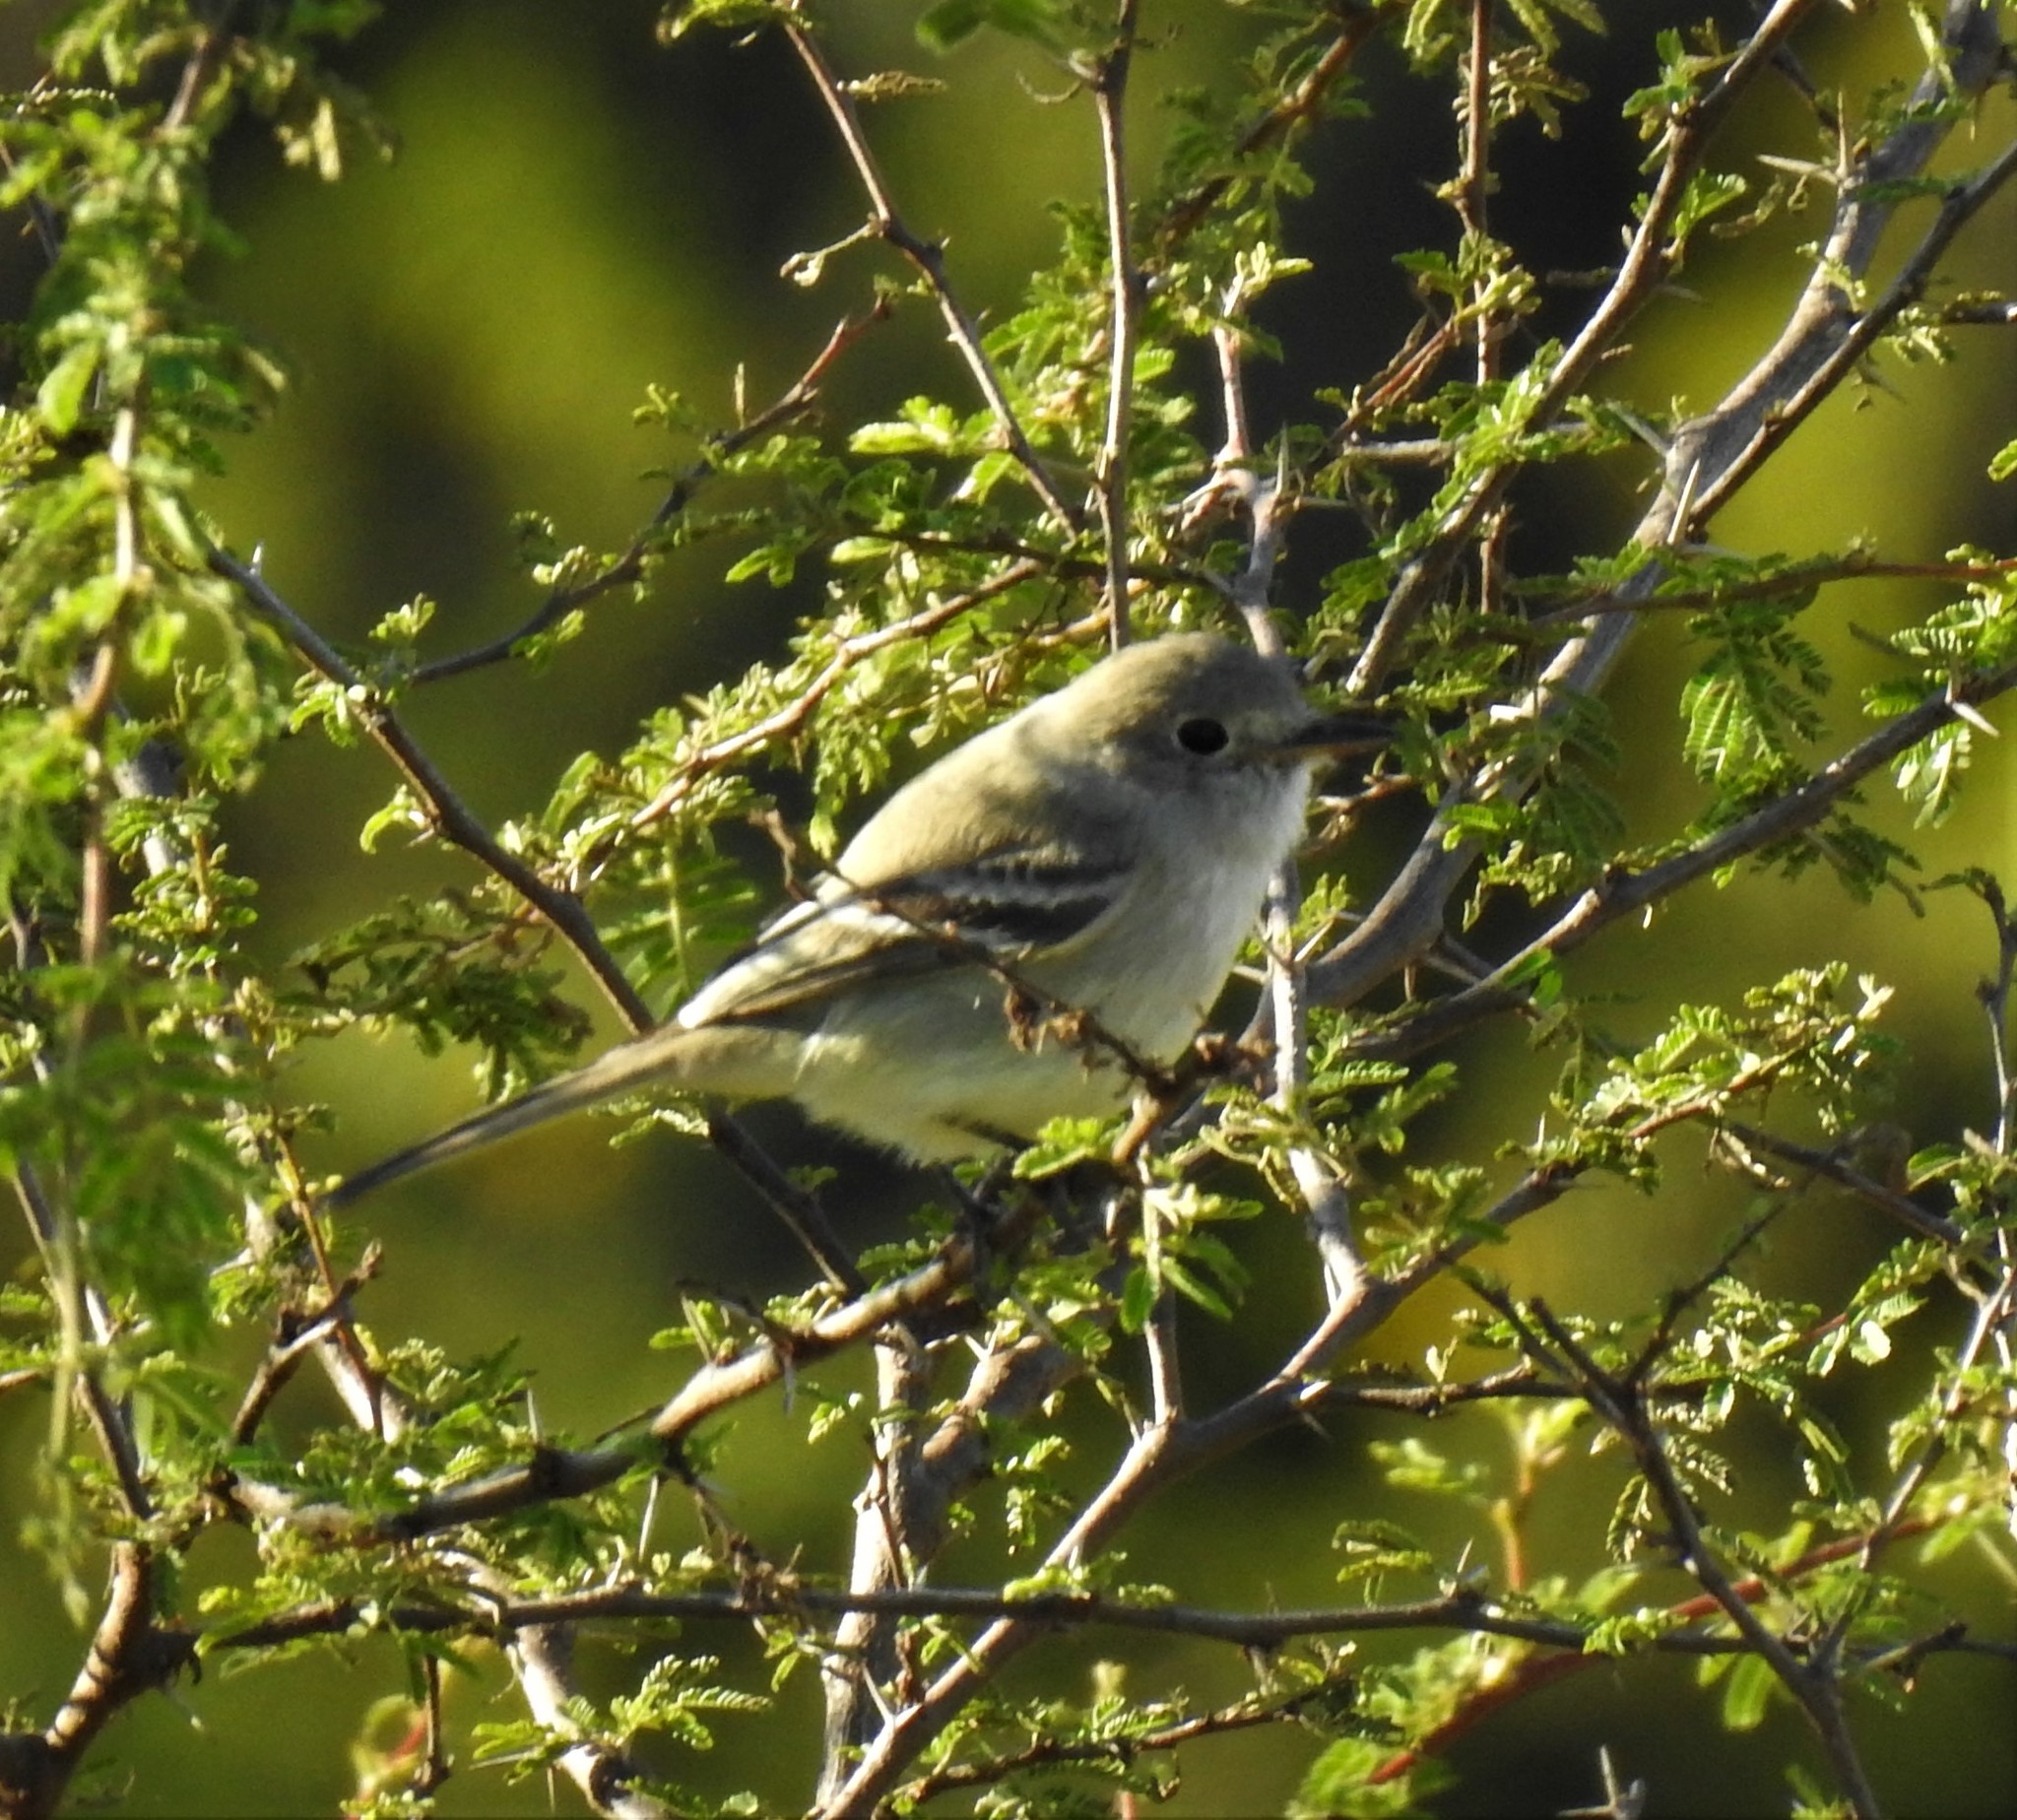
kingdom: Animalia
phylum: Chordata
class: Aves
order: Passeriformes
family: Tyrannidae
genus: Empidonax
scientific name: Empidonax wrightii
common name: Gray flycatcher
